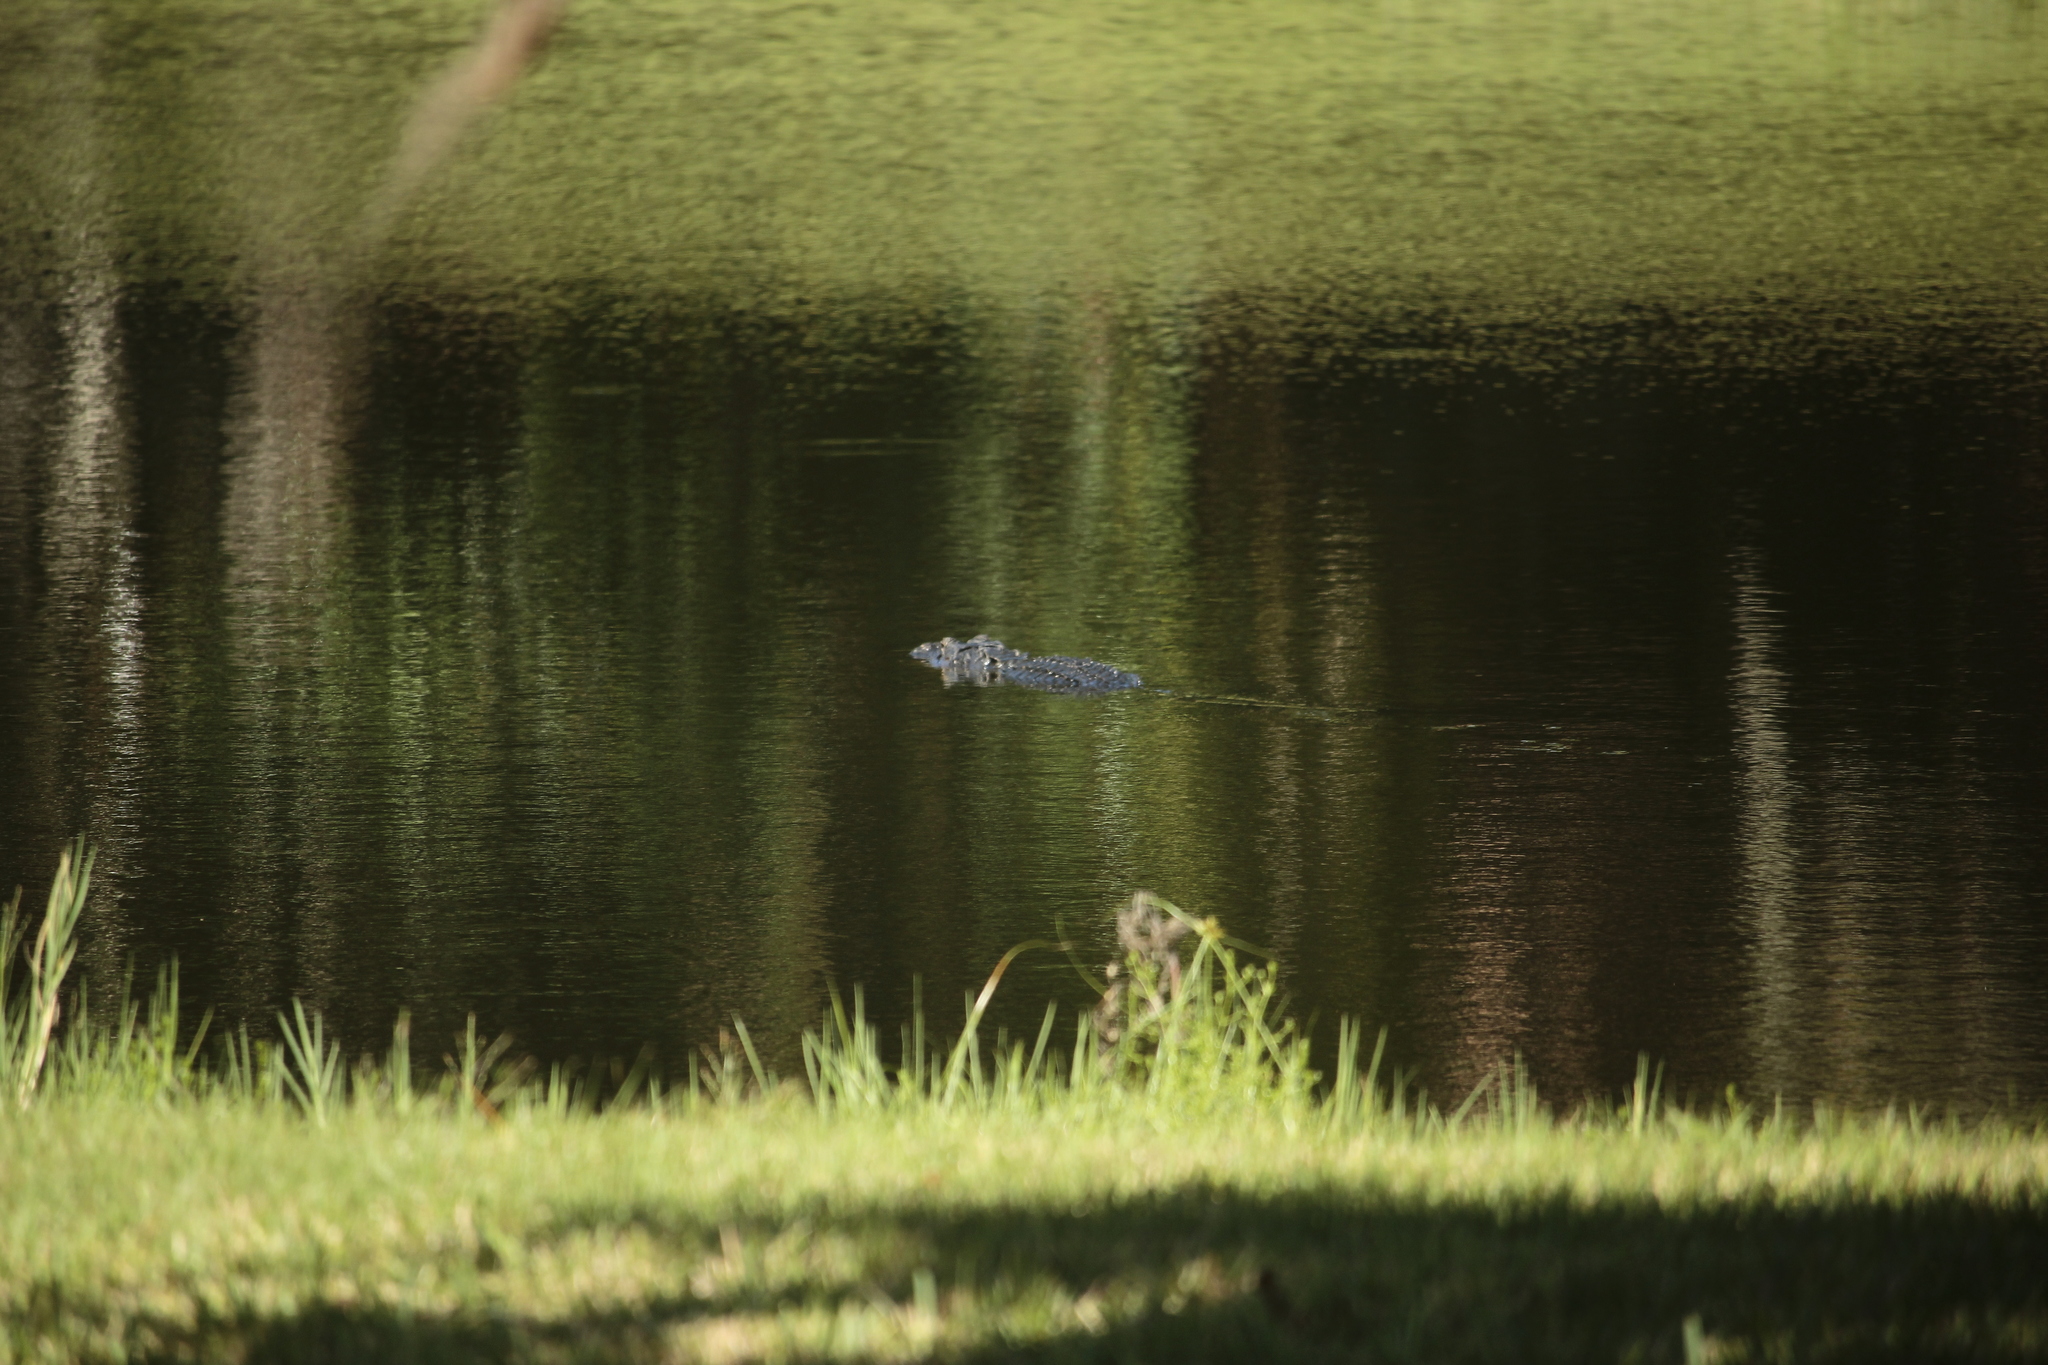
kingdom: Animalia
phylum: Chordata
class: Crocodylia
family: Alligatoridae
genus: Alligator
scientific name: Alligator mississippiensis
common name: American alligator
